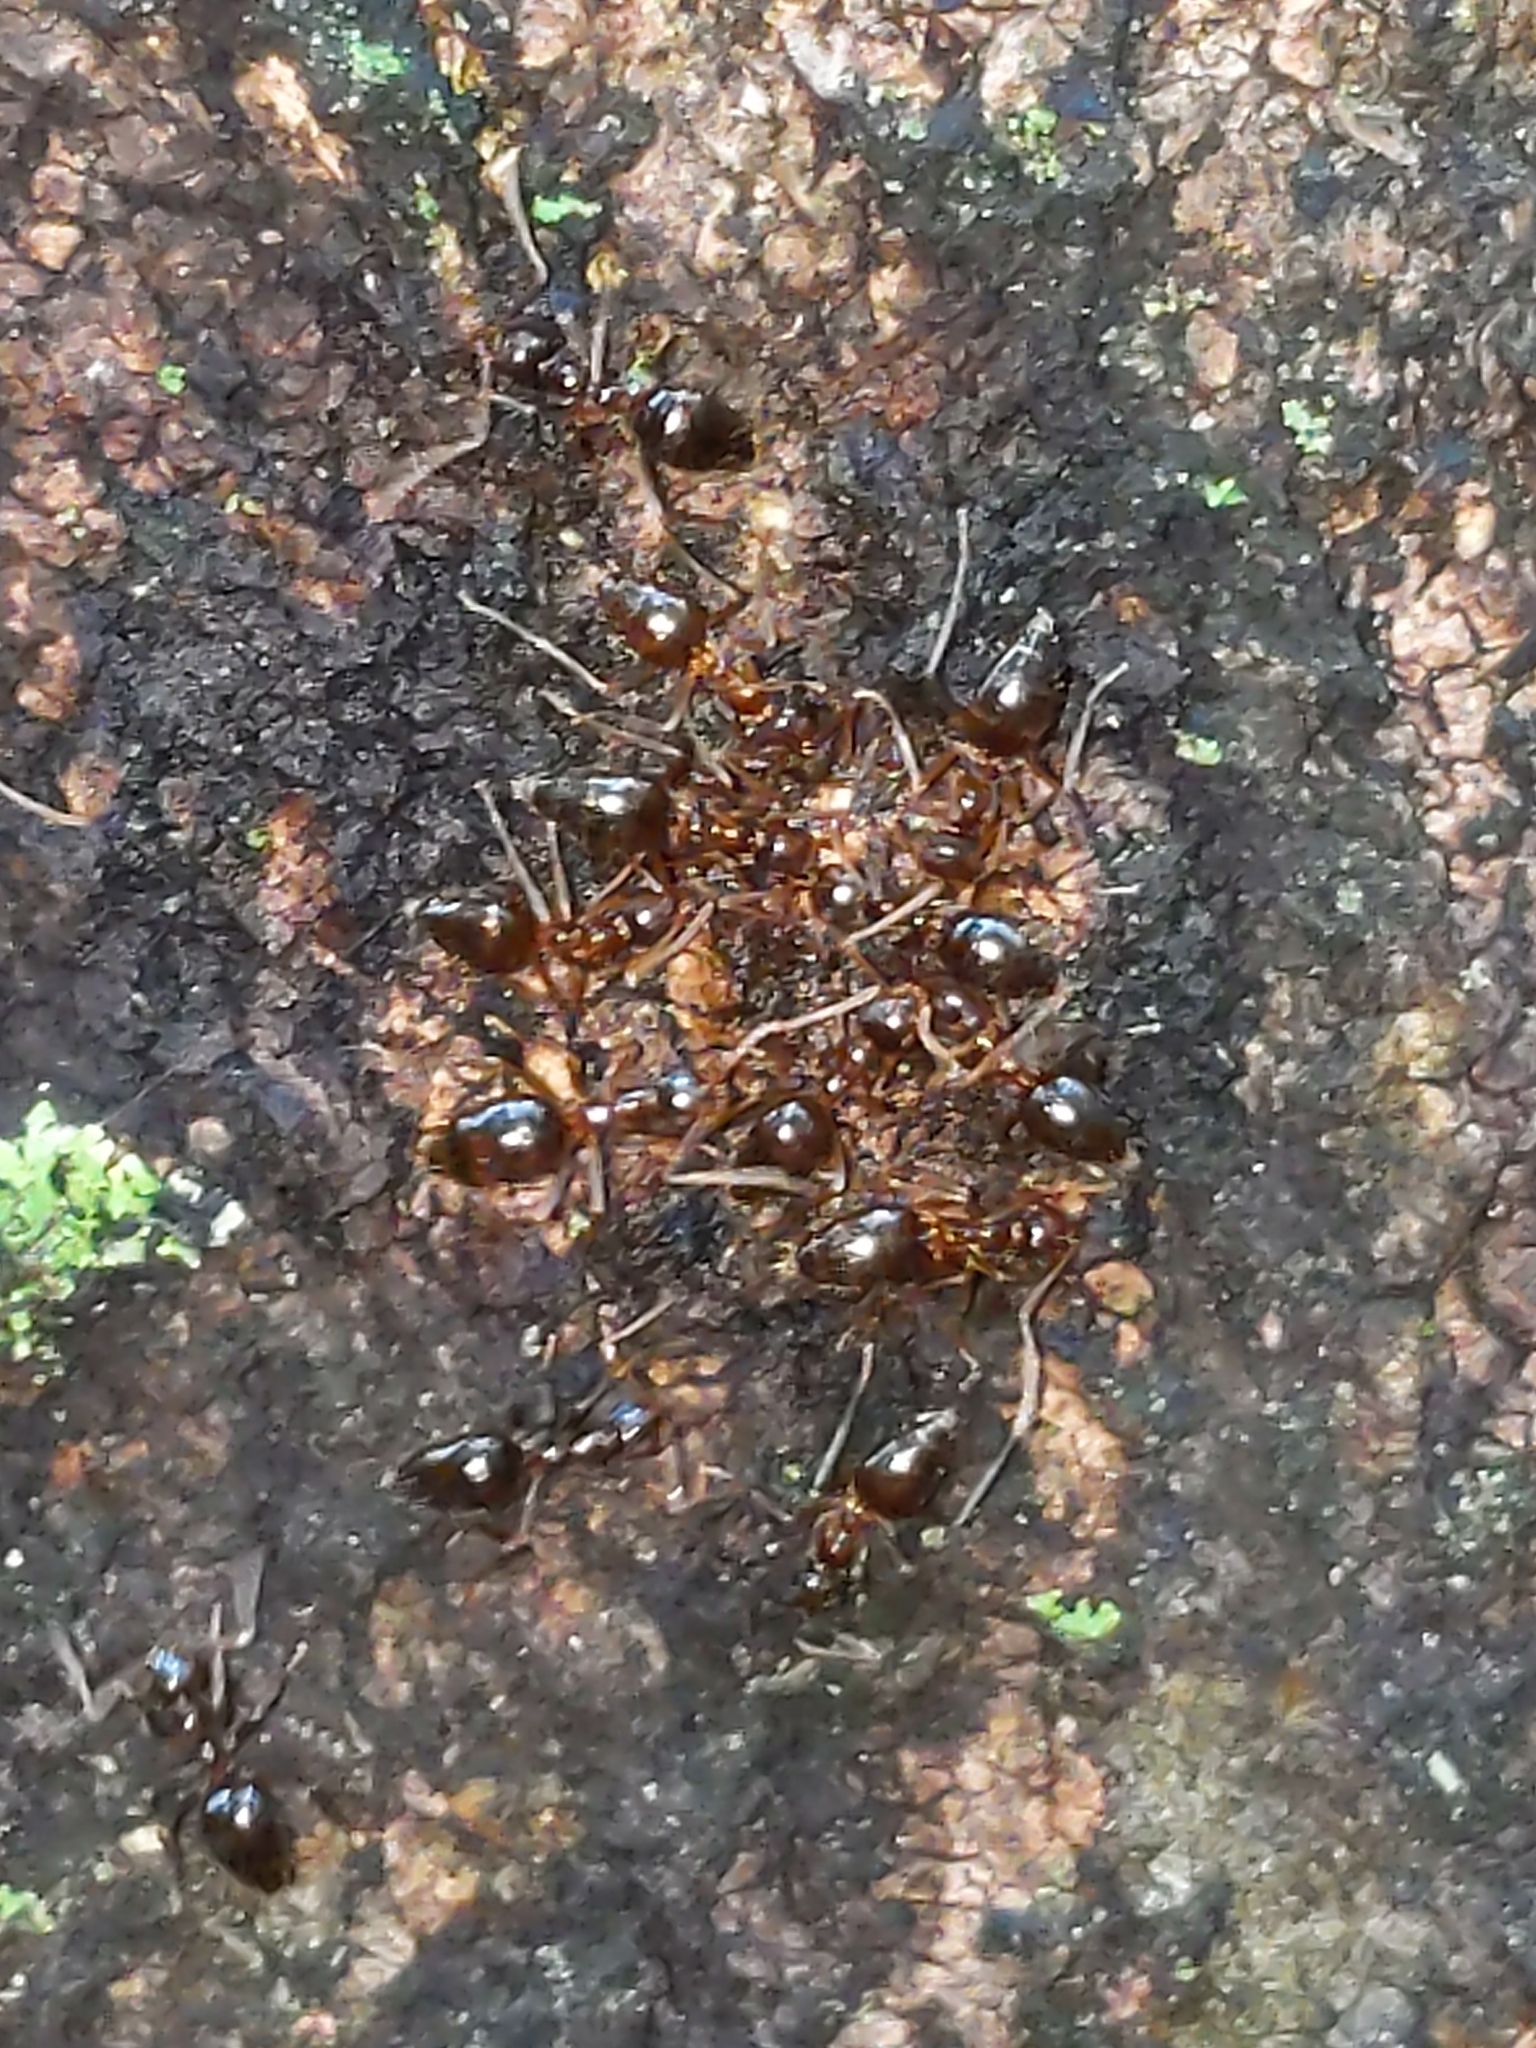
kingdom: Animalia
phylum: Arthropoda
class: Insecta
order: Hymenoptera
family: Formicidae
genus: Prenolepis
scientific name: Prenolepis imparis
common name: Small honey ant
